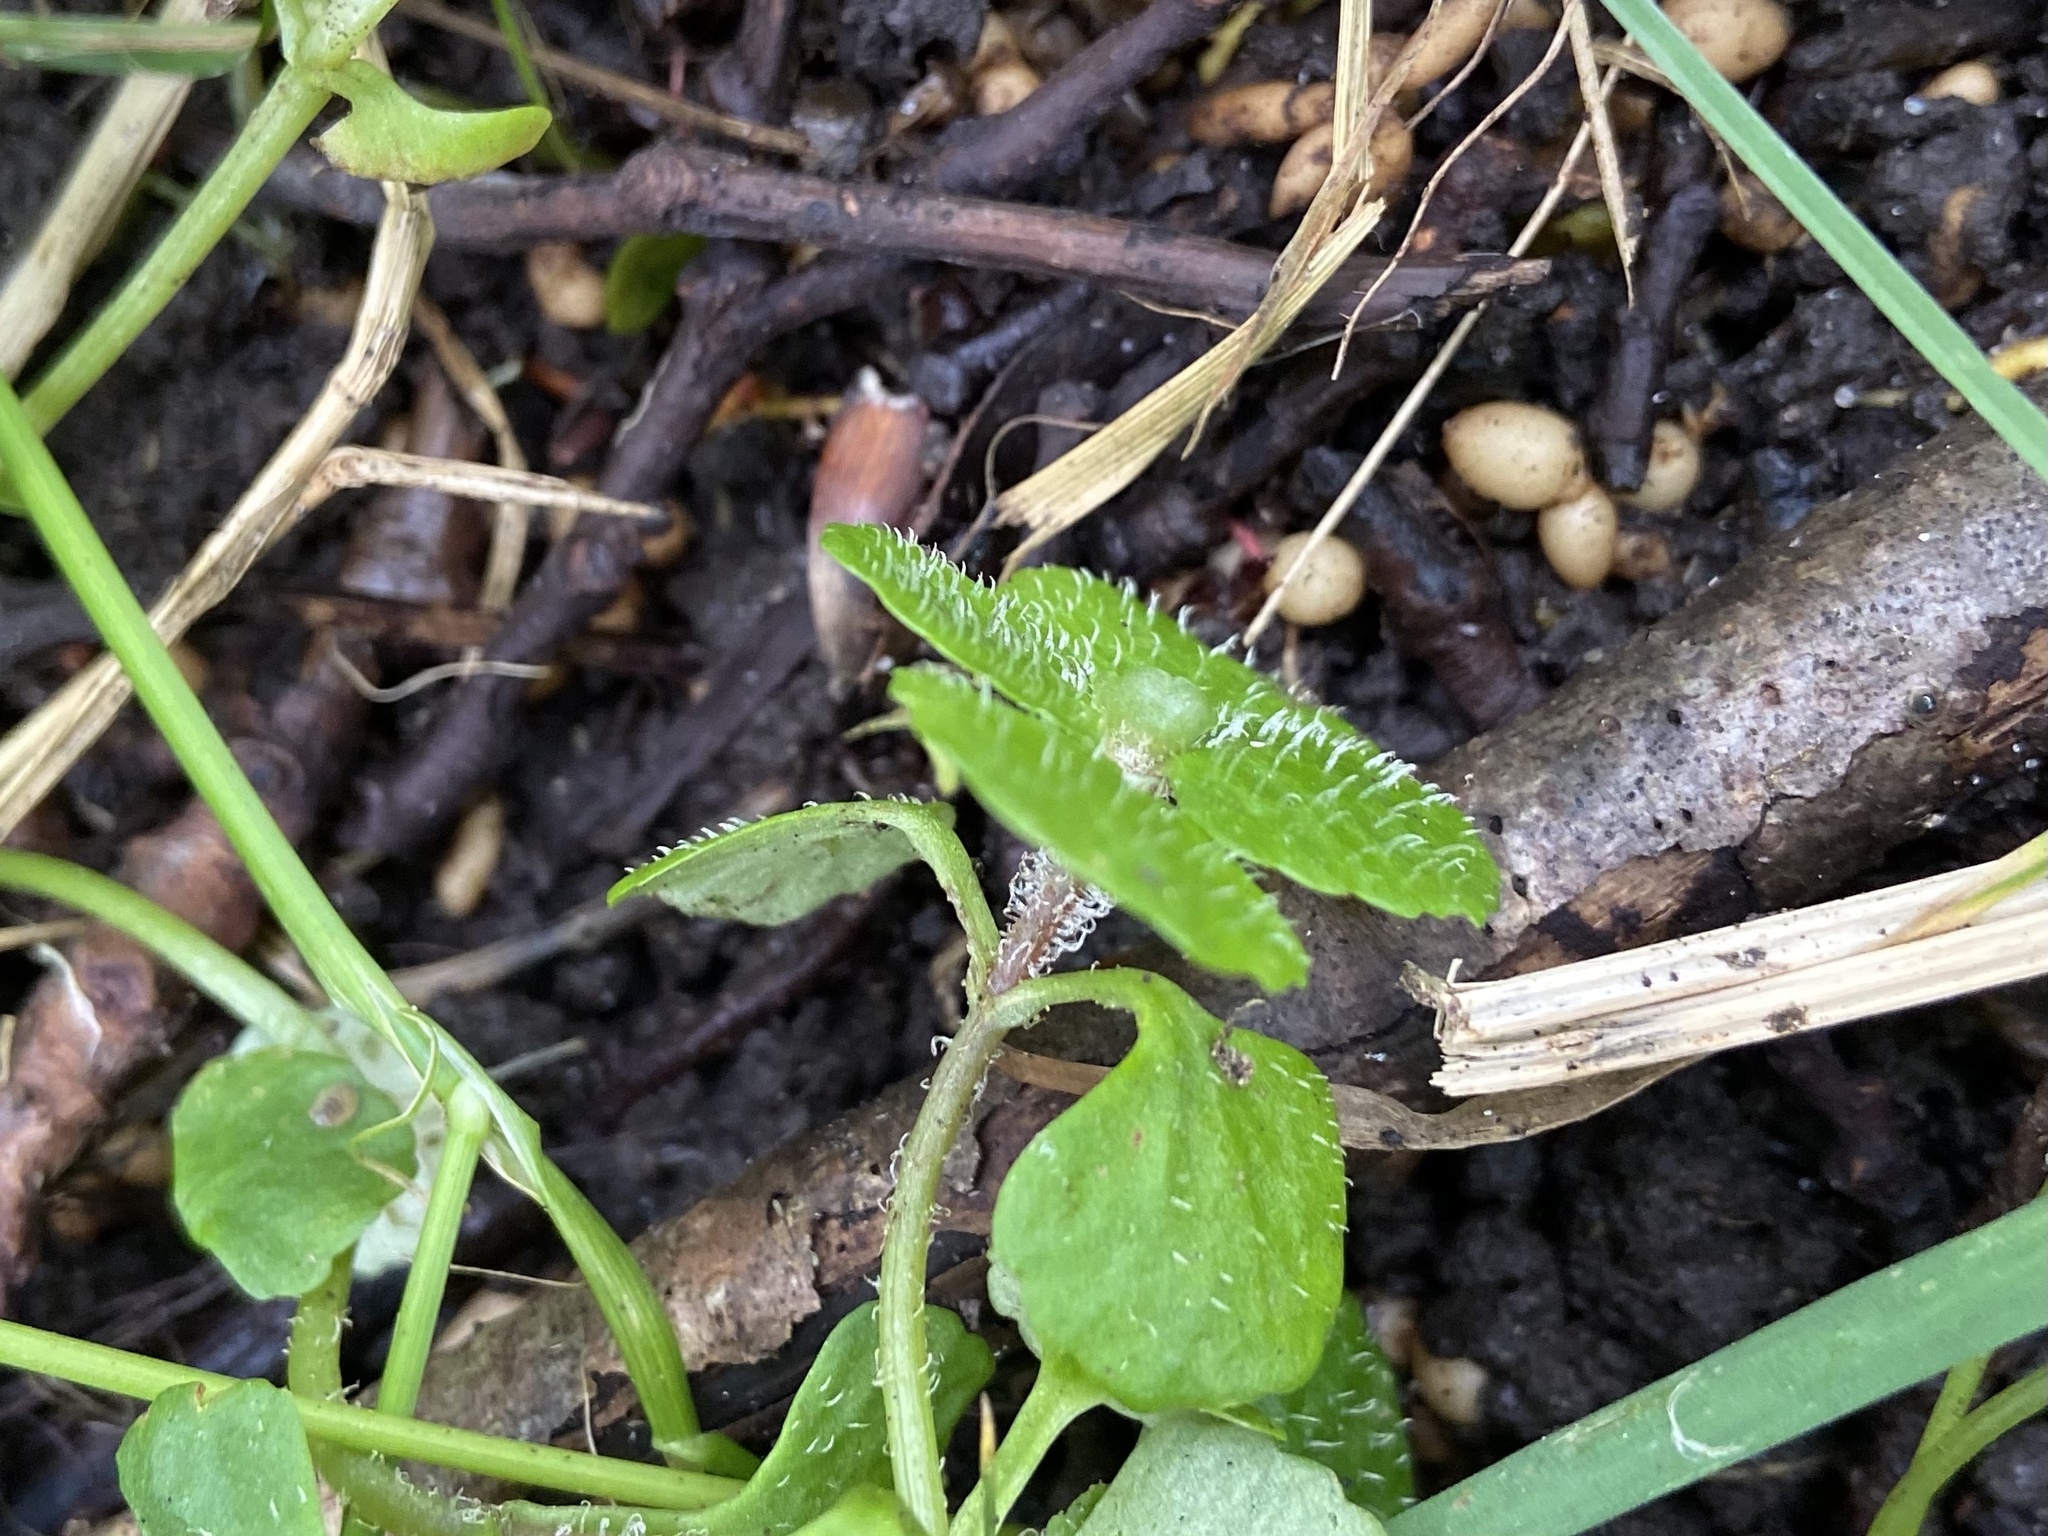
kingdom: Plantae
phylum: Tracheophyta
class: Magnoliopsida
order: Saxifragales
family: Saxifragaceae
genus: Chrysosplenium
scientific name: Chrysosplenium oppositifolium
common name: Opposite-leaved golden-saxifrage
